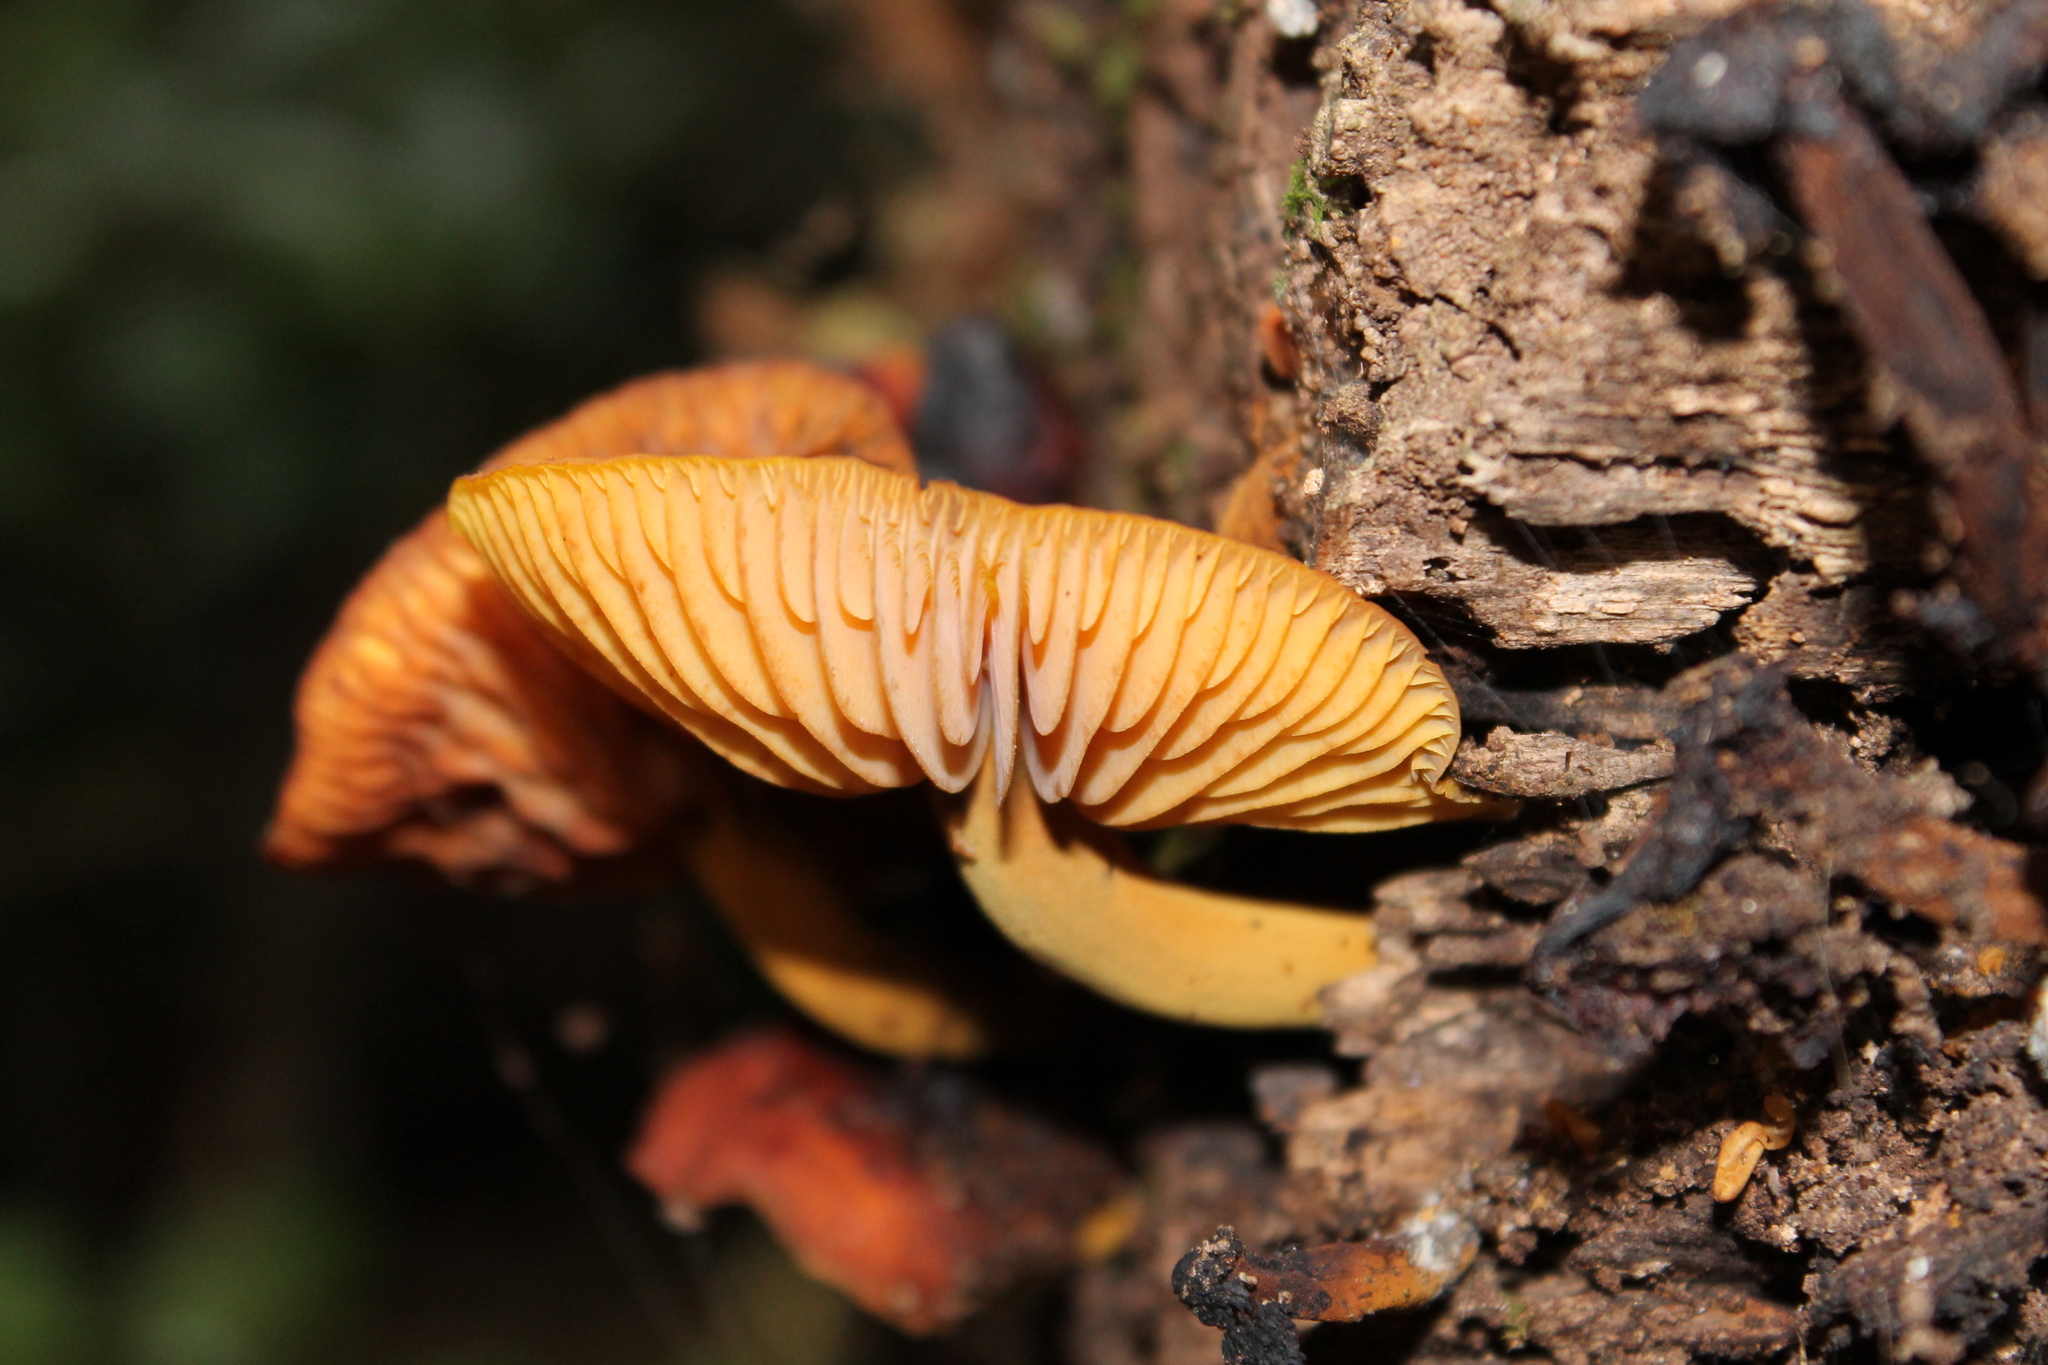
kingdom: Fungi
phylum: Basidiomycota
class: Agaricomycetes
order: Agaricales
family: Mycenaceae
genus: Heimiomyces
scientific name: Heimiomyces velutipes
